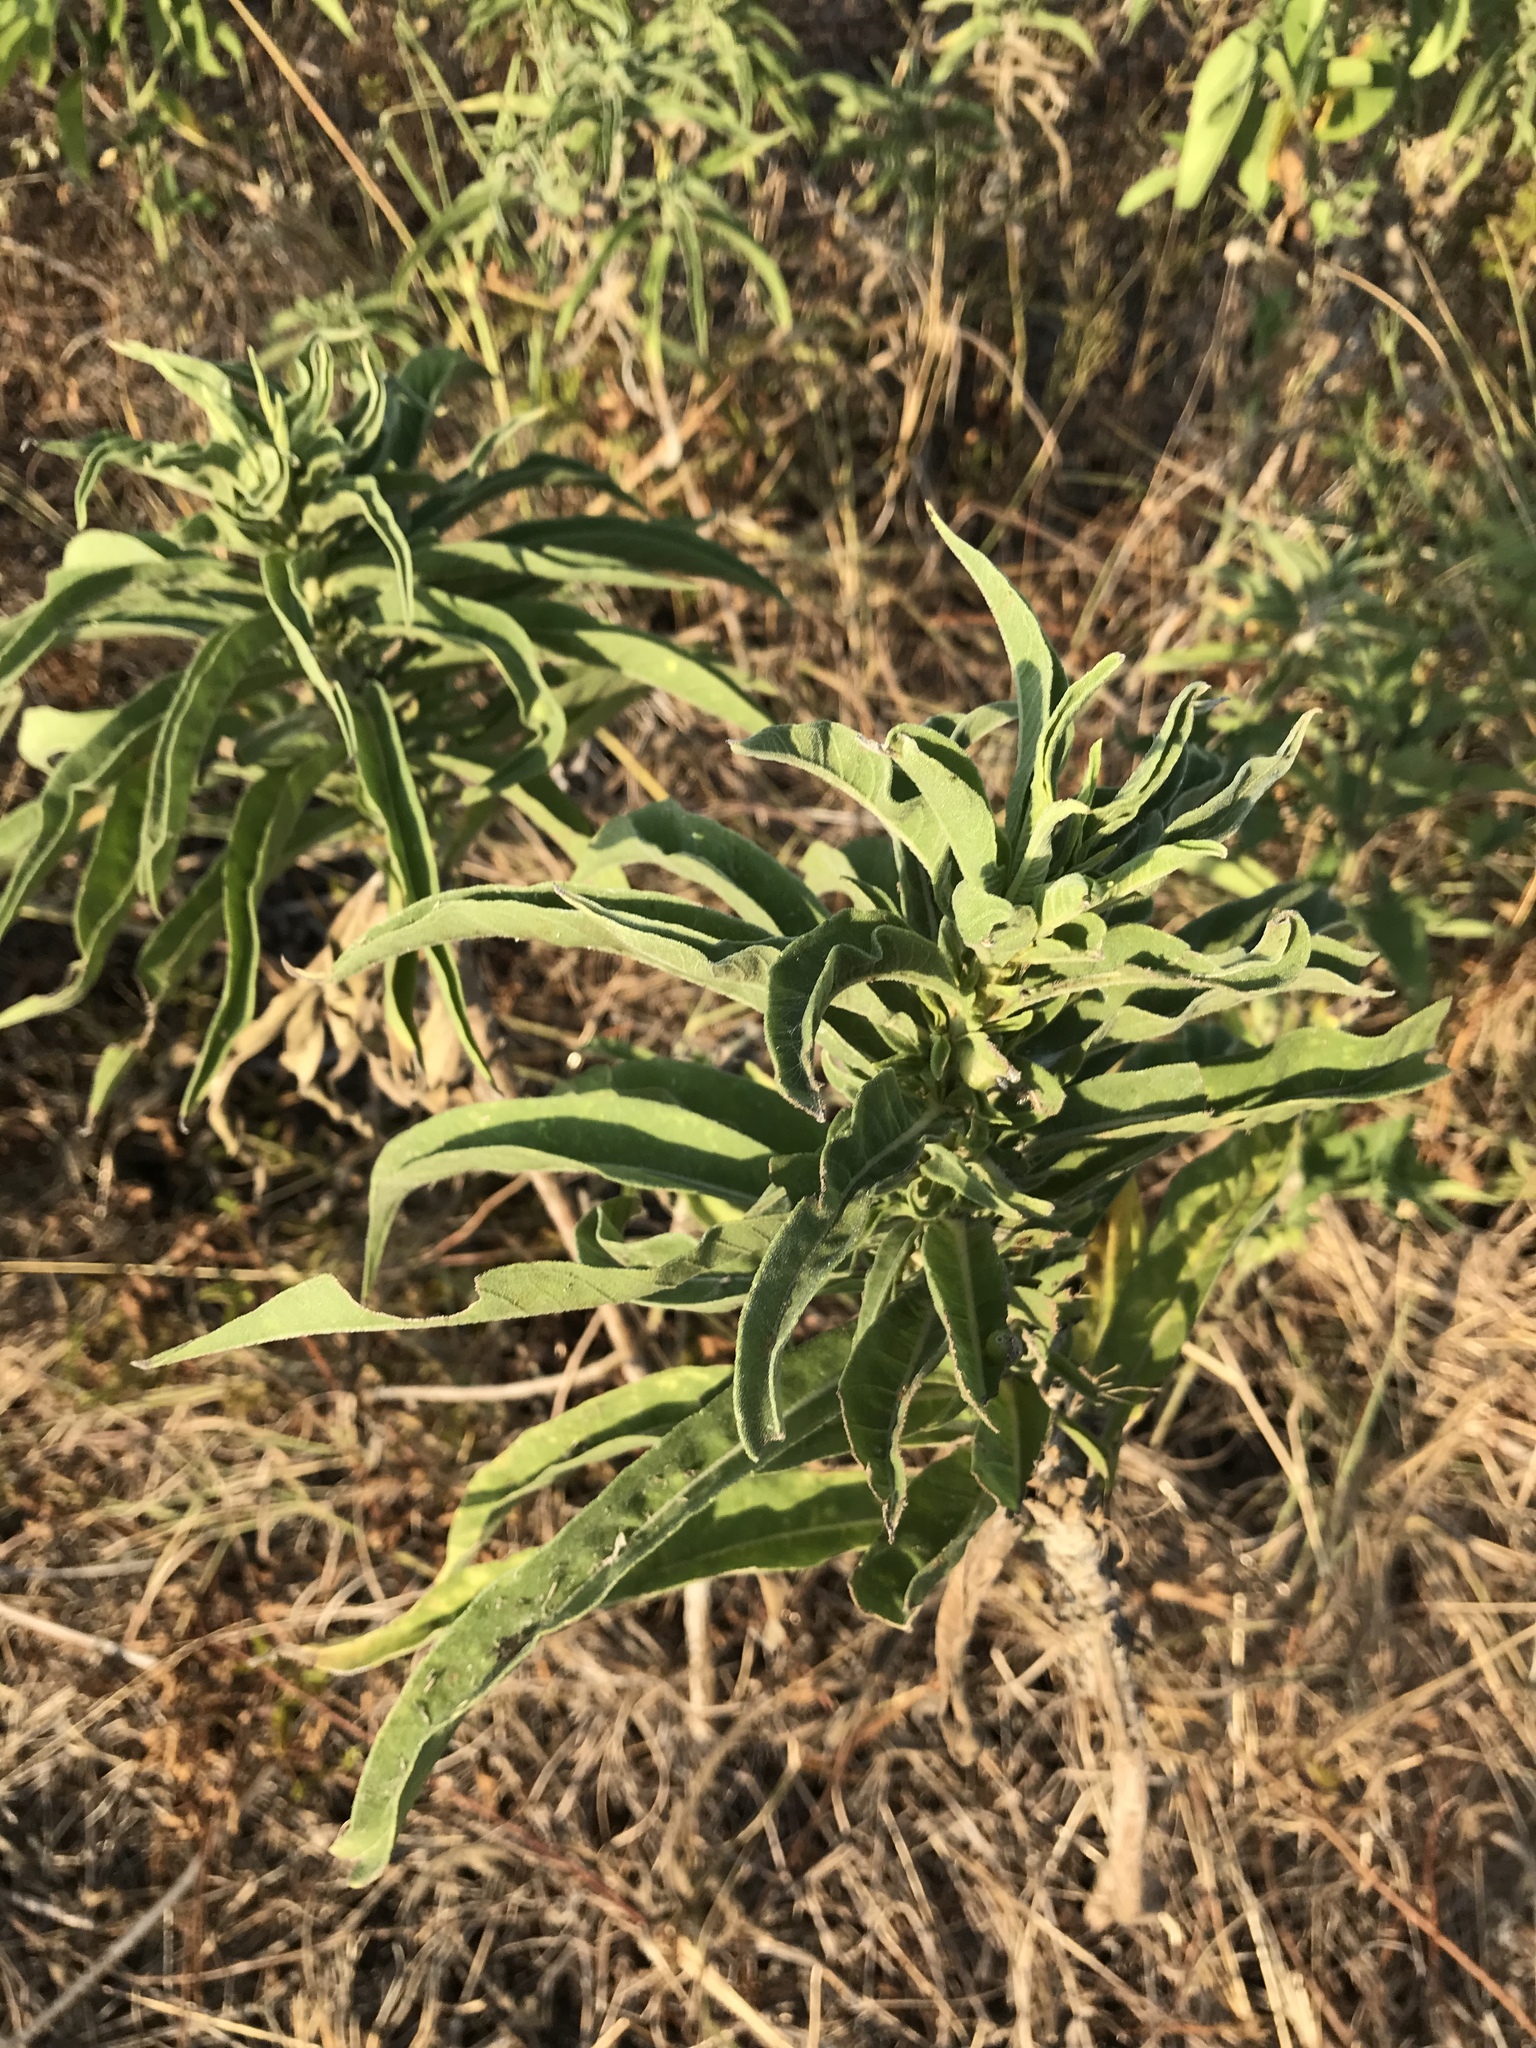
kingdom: Plantae
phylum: Tracheophyta
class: Magnoliopsida
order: Asterales
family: Asteraceae
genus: Helianthus
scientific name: Helianthus maximiliani
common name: Maximilian's sunflower
